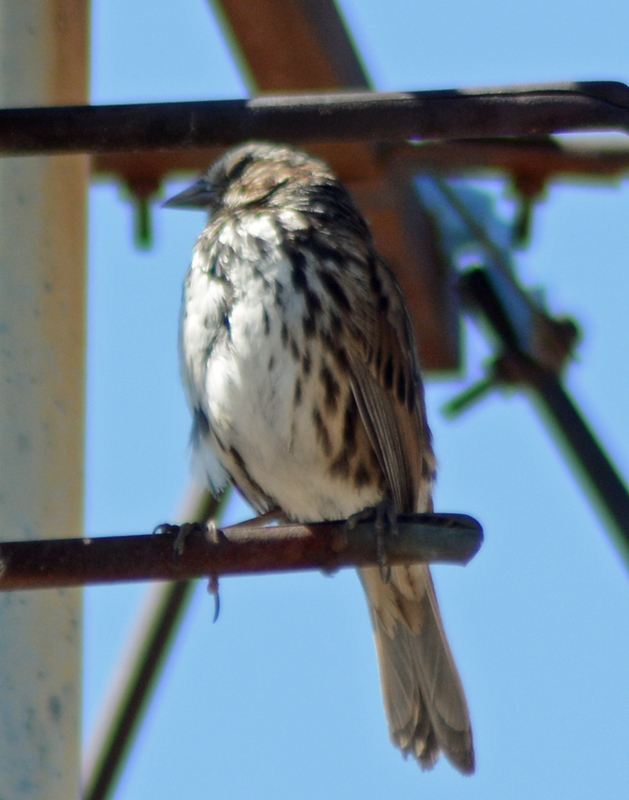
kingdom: Animalia
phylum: Chordata
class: Aves
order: Passeriformes
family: Passerellidae
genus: Melospiza
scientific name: Melospiza melodia
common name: Song sparrow
